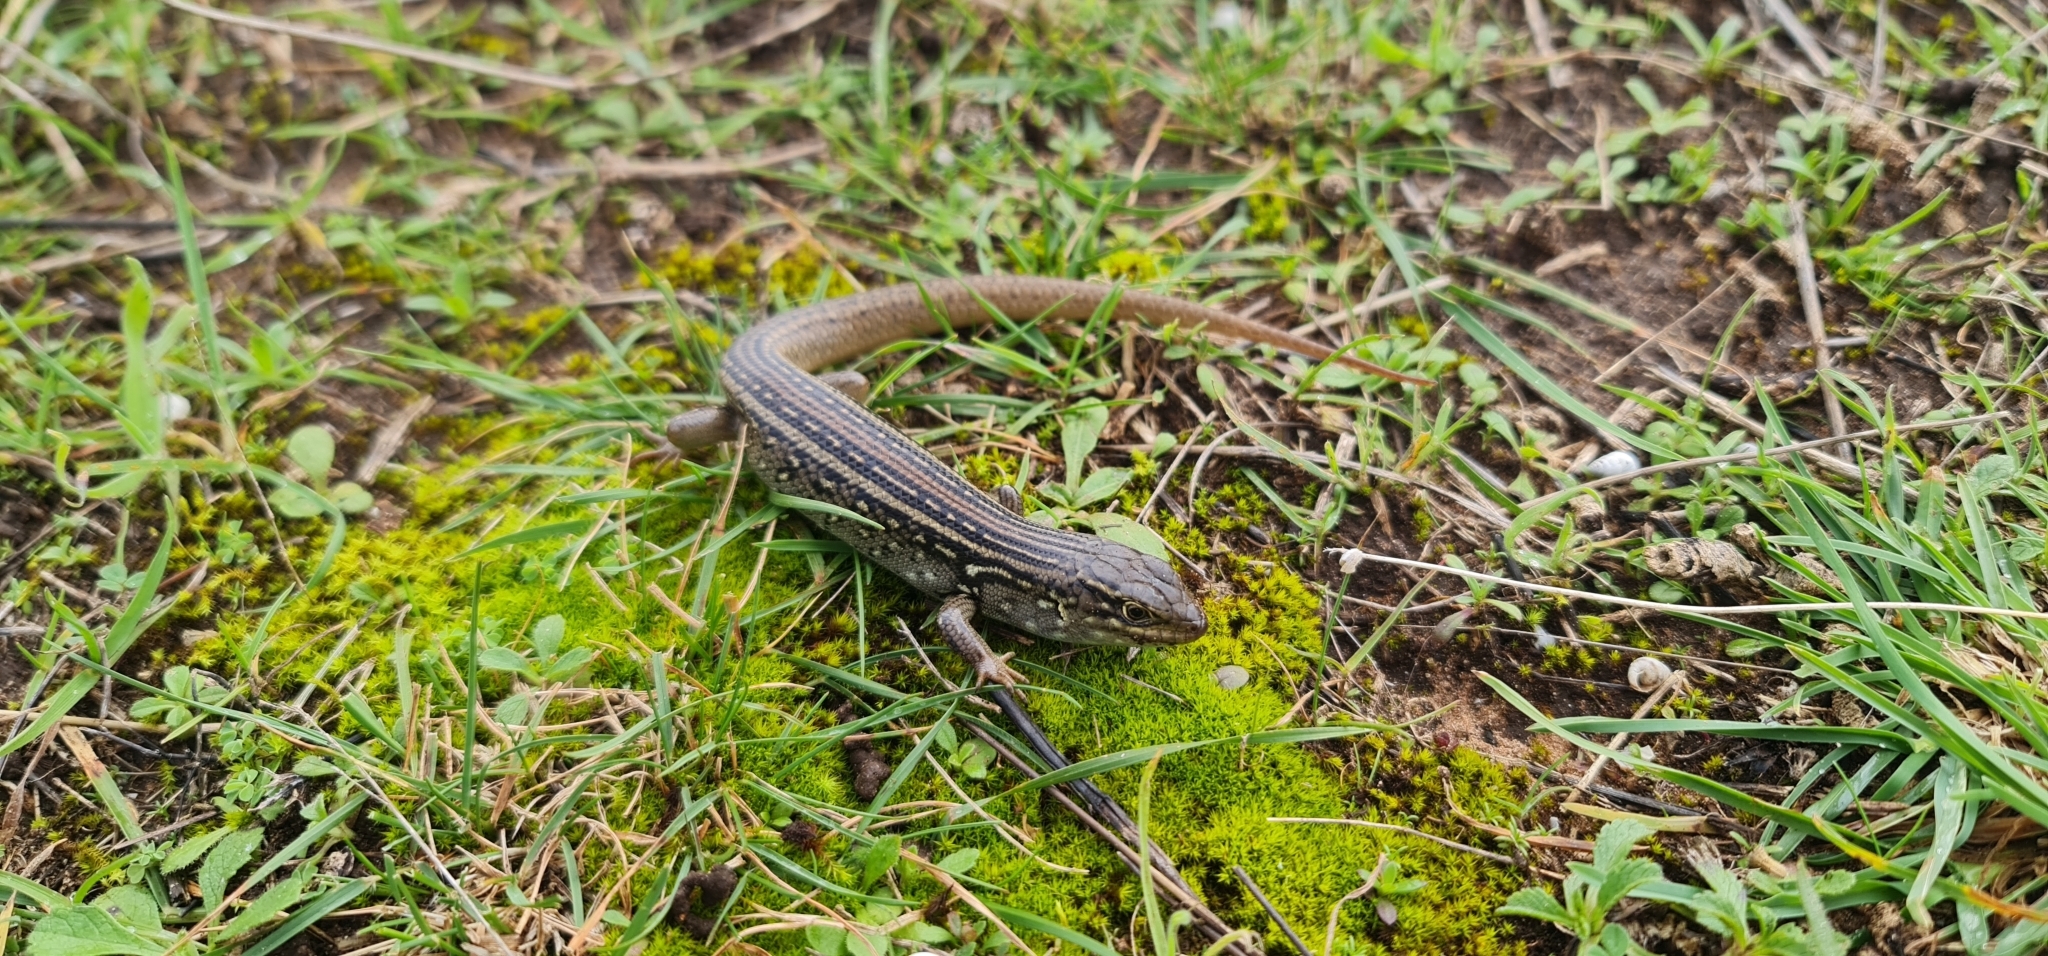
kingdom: Animalia
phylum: Chordata
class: Squamata
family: Scincidae
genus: Liopholis
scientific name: Liopholis whitii
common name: White's rock-skink
